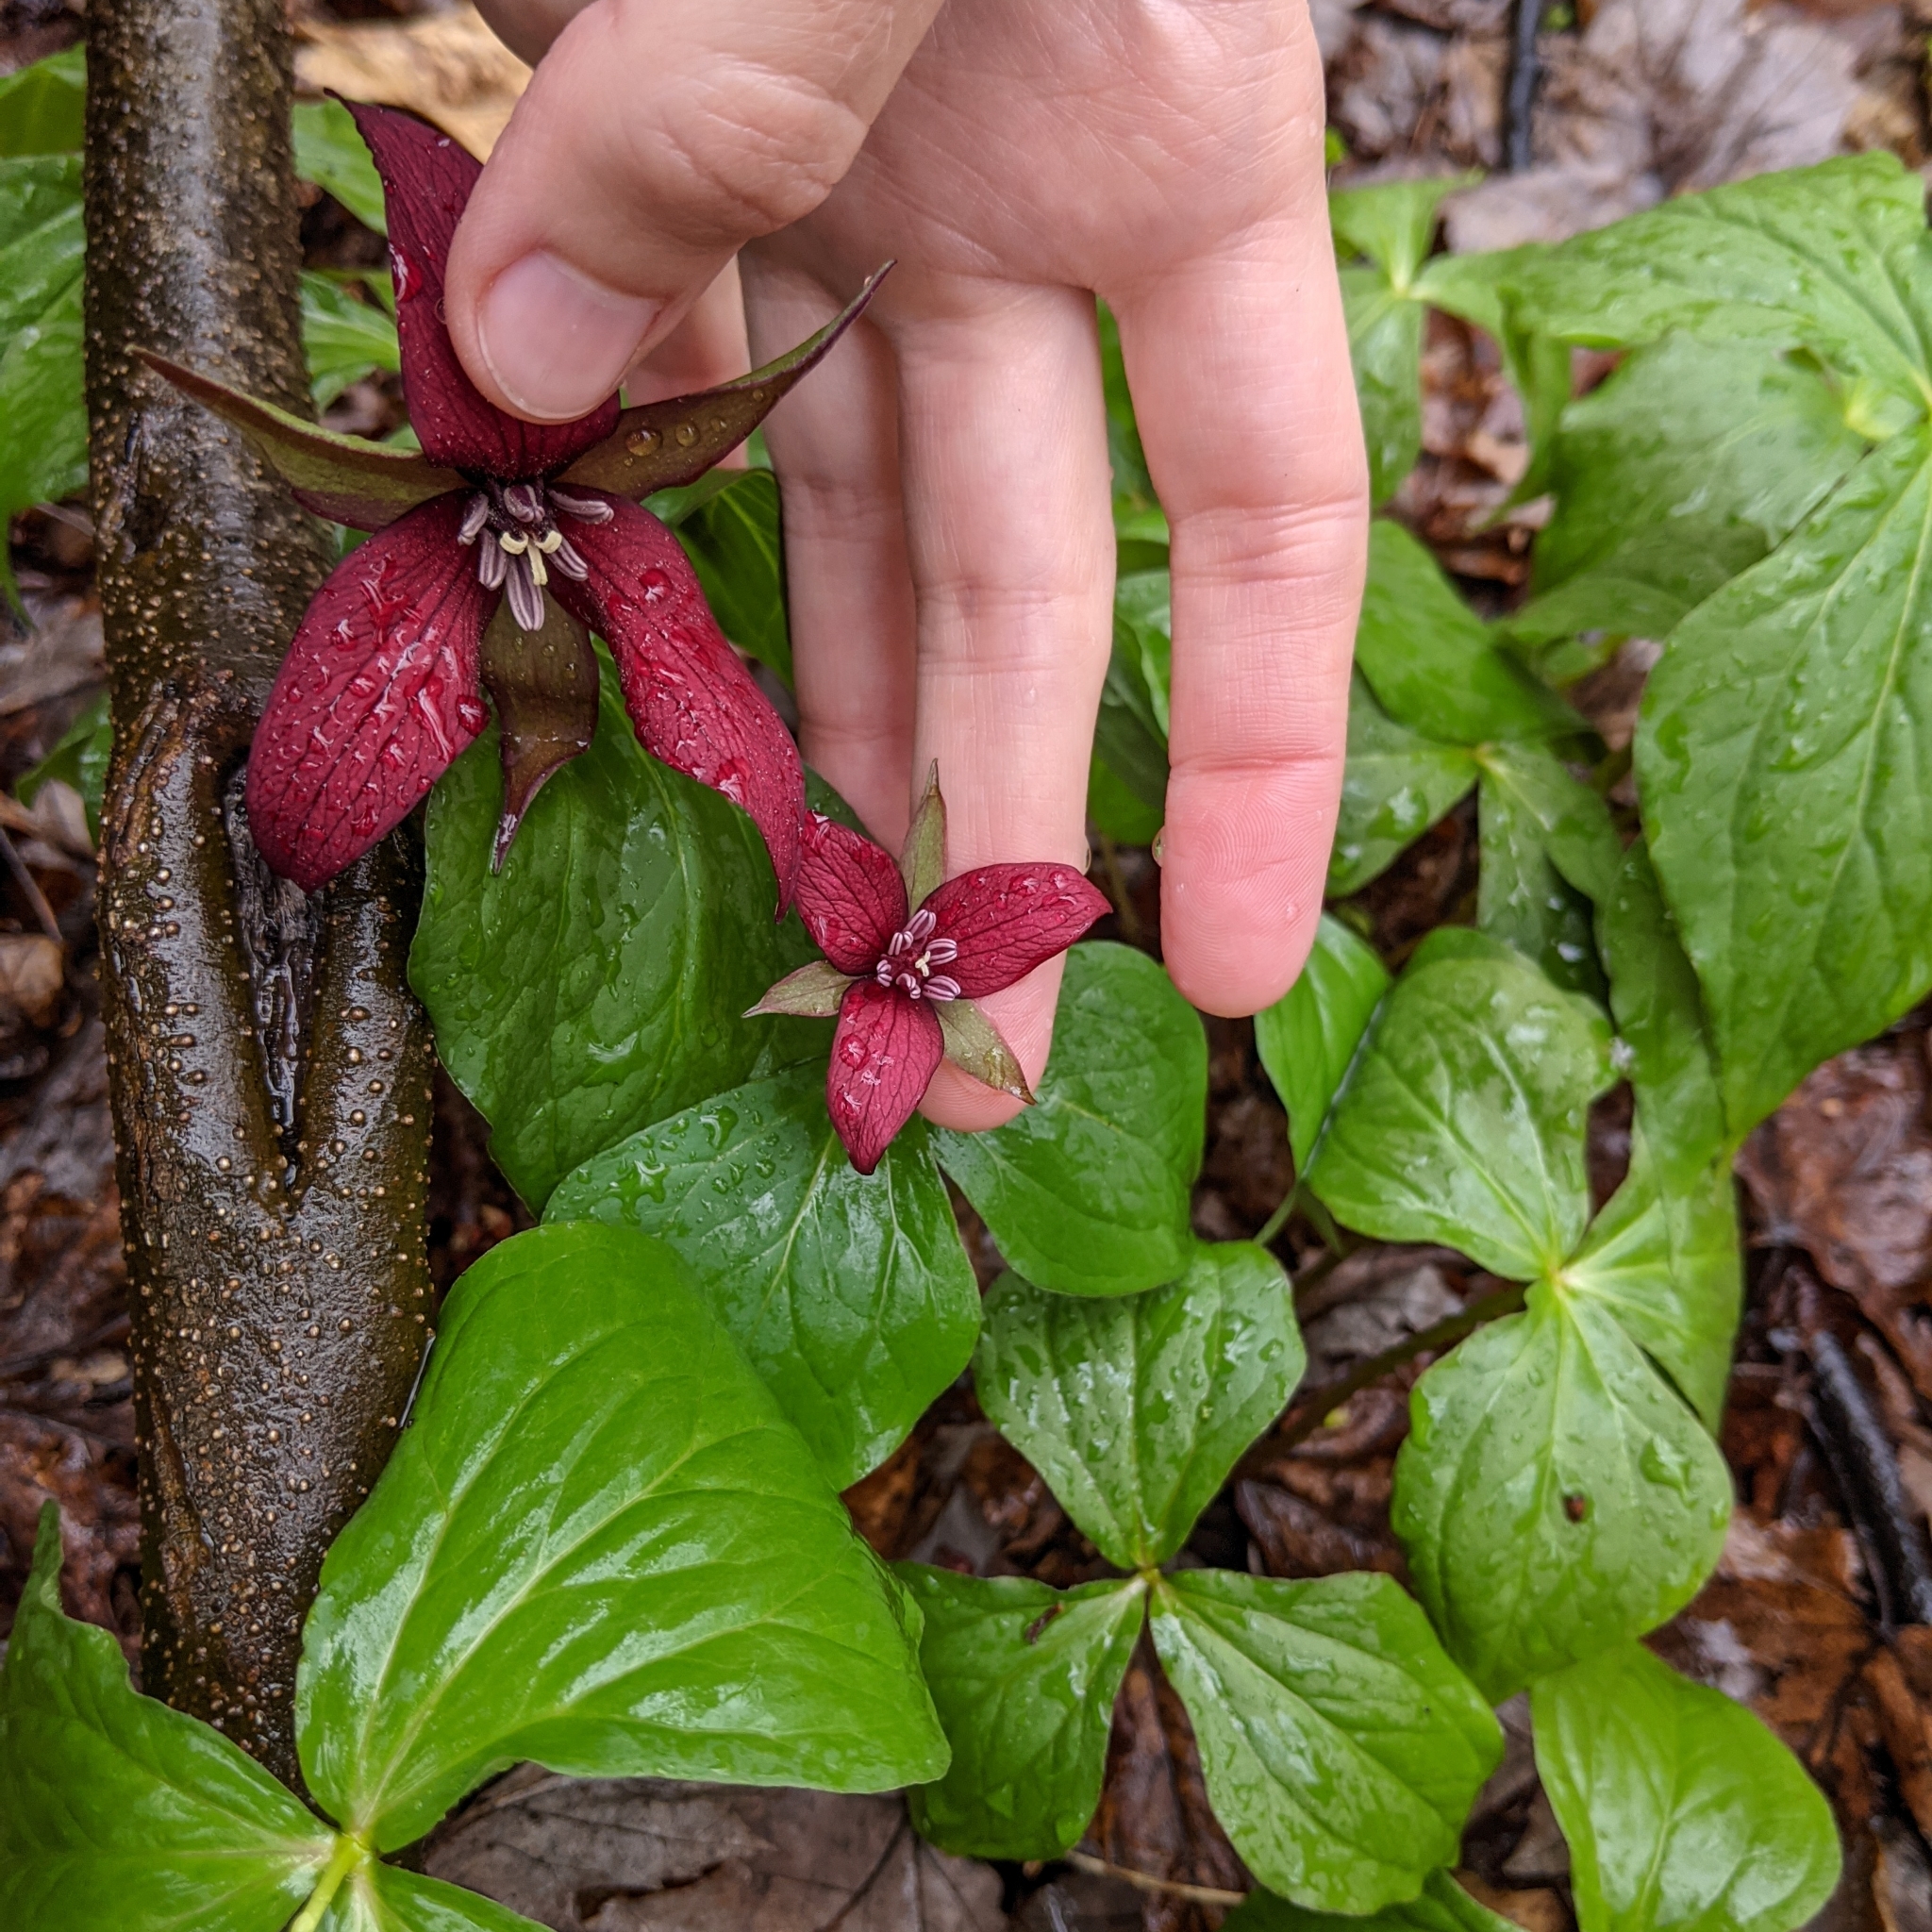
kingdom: Plantae
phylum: Tracheophyta
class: Liliopsida
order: Liliales
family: Melanthiaceae
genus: Trillium
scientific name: Trillium erectum
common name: Purple trillium
